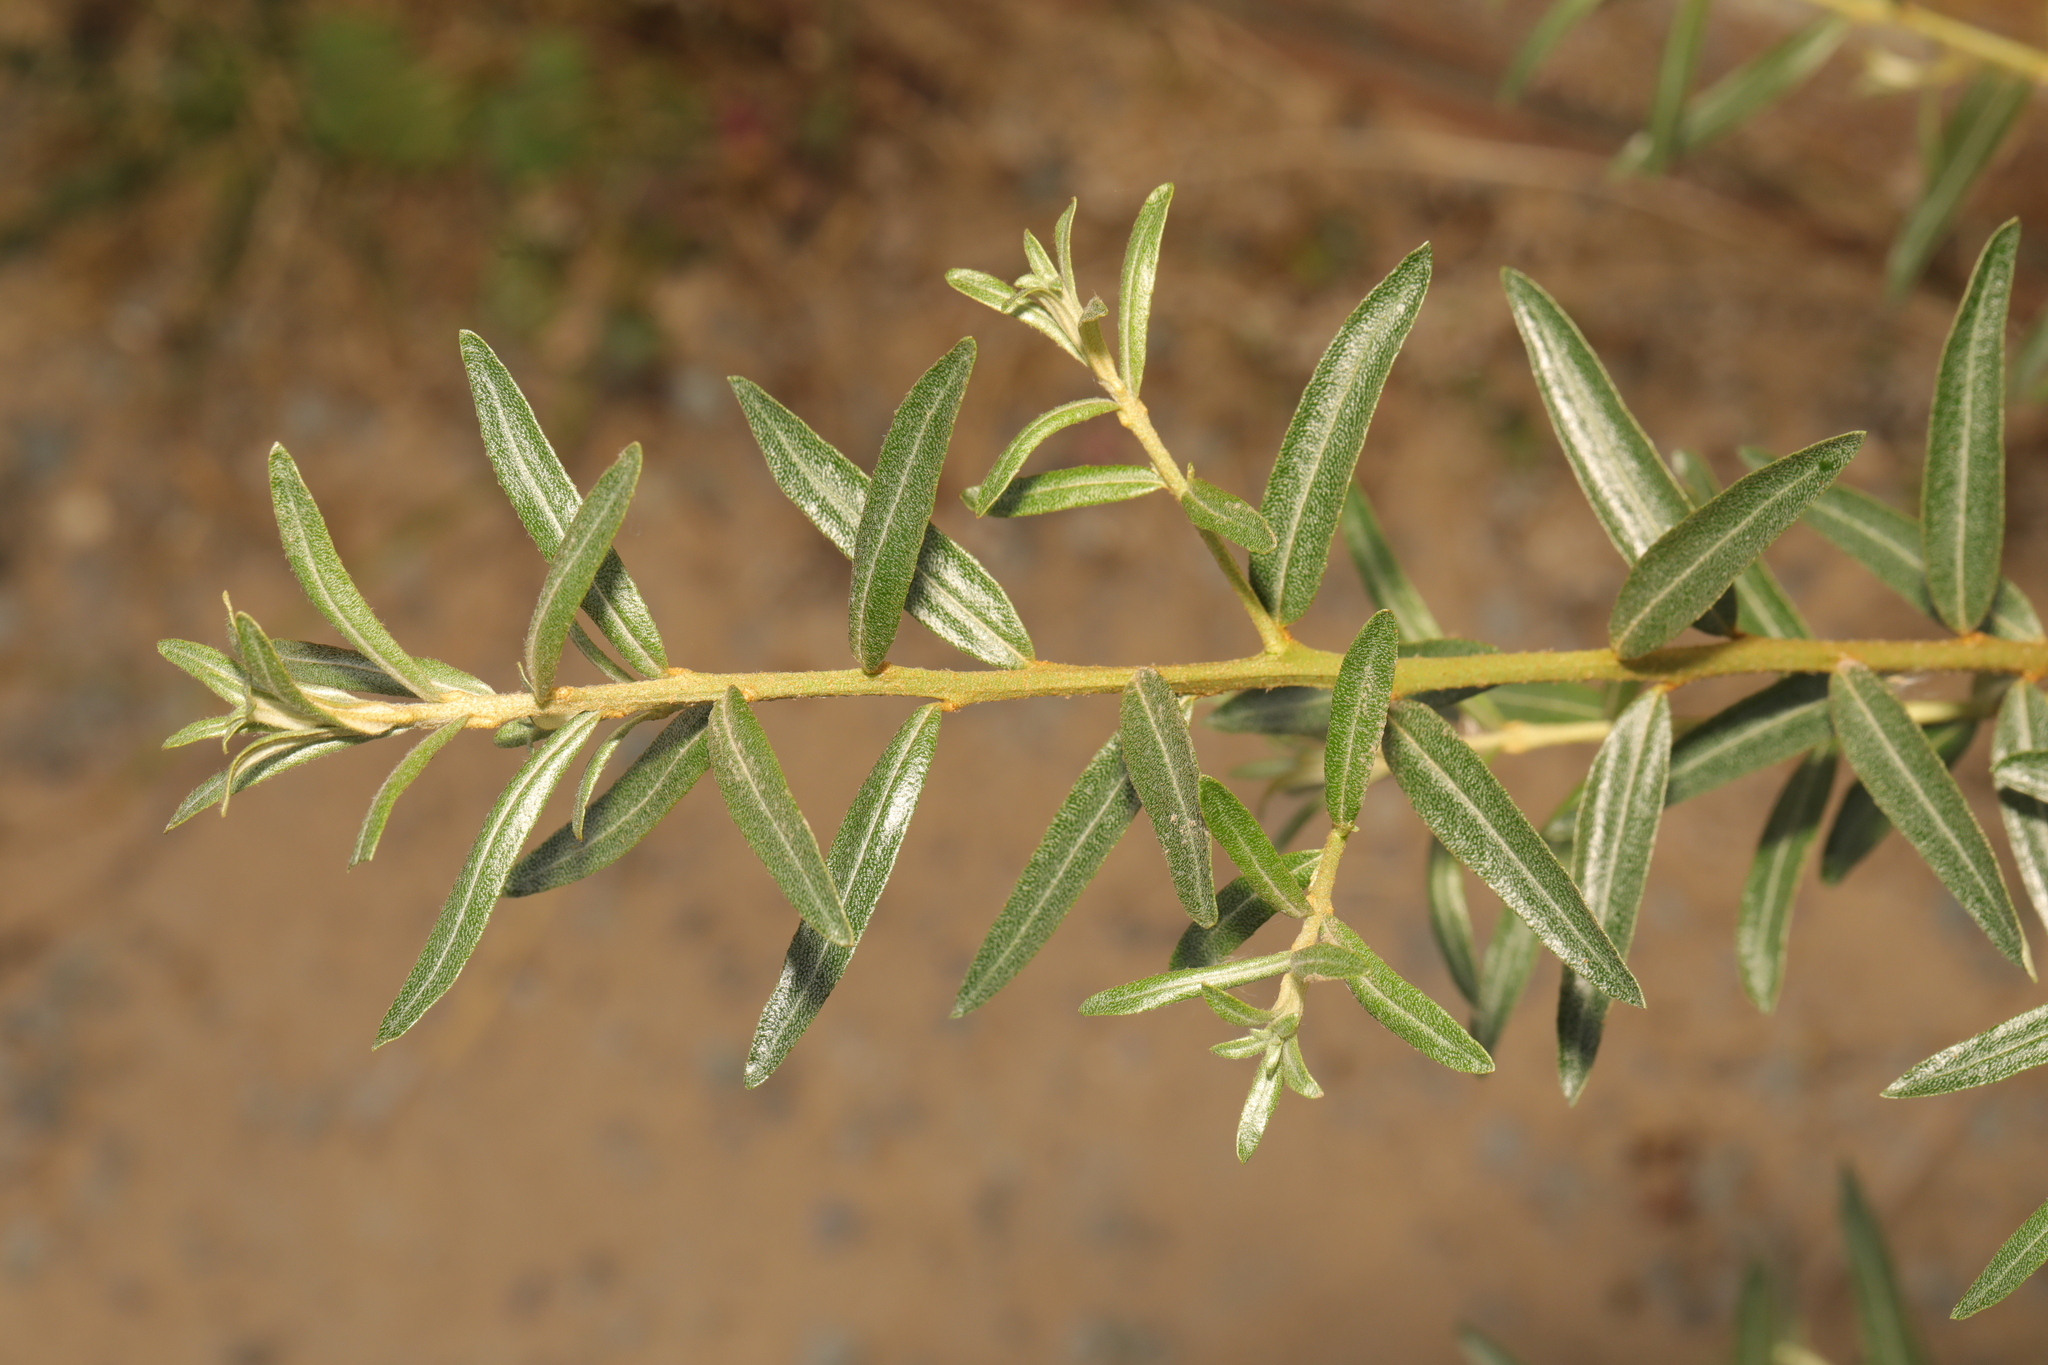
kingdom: Plantae
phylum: Tracheophyta
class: Magnoliopsida
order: Rosales
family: Elaeagnaceae
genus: Hippophae
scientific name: Hippophae rhamnoides
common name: Sea-buckthorn
